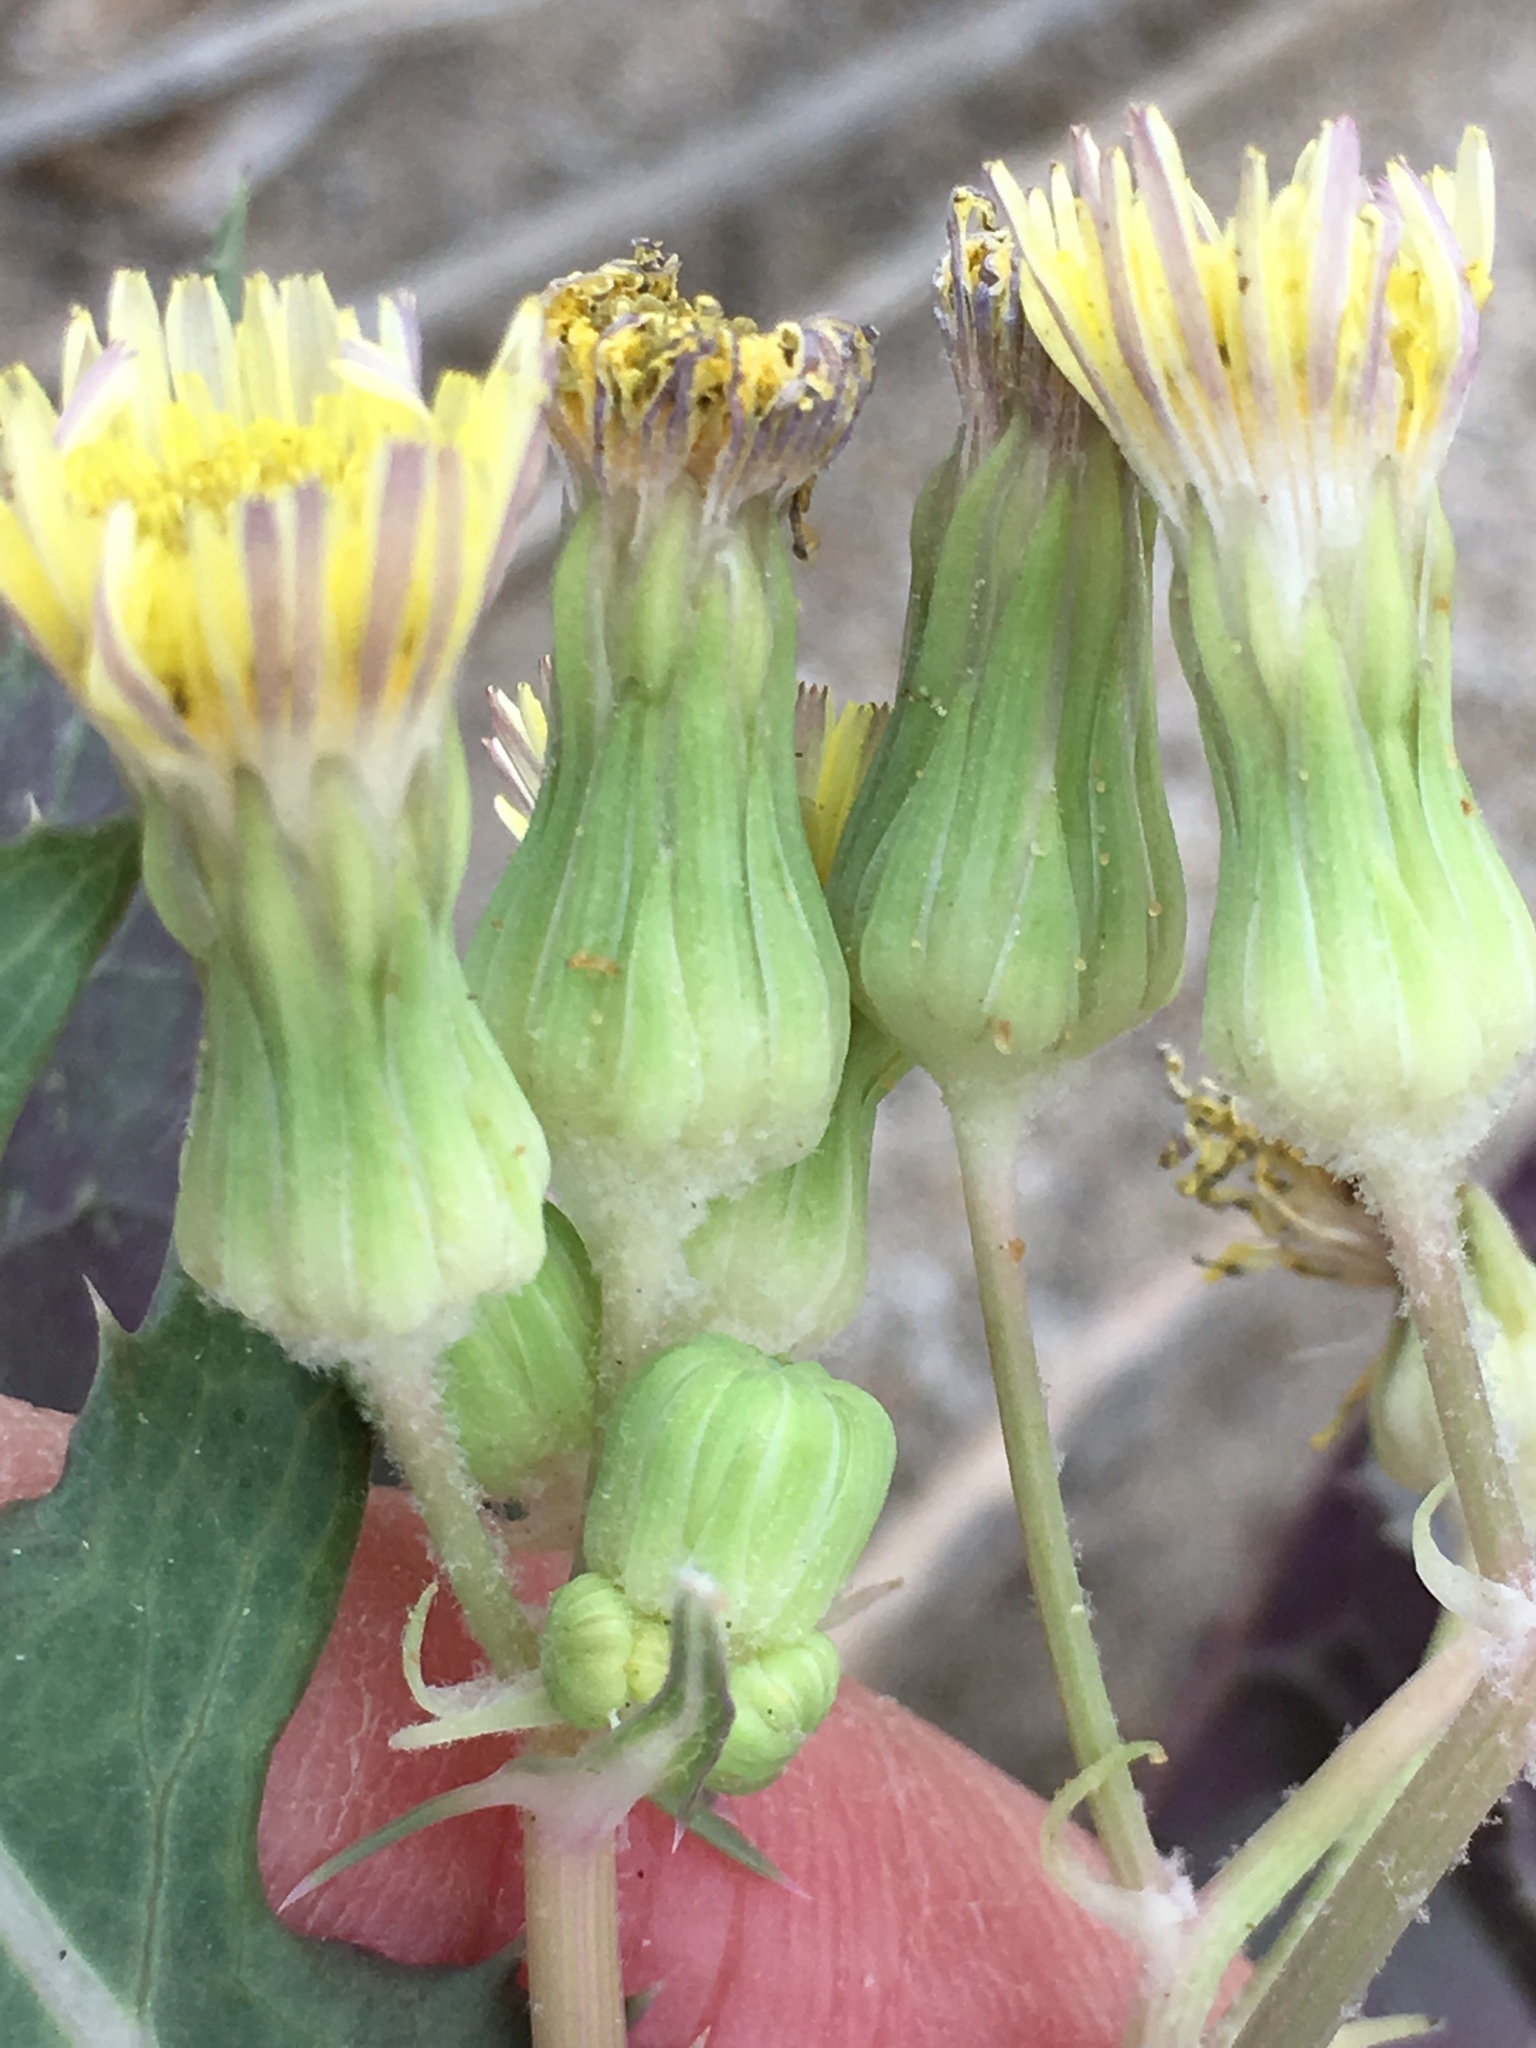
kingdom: Plantae
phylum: Tracheophyta
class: Magnoliopsida
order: Asterales
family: Asteraceae
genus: Sonchus
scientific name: Sonchus oleraceus
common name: Common sowthistle
